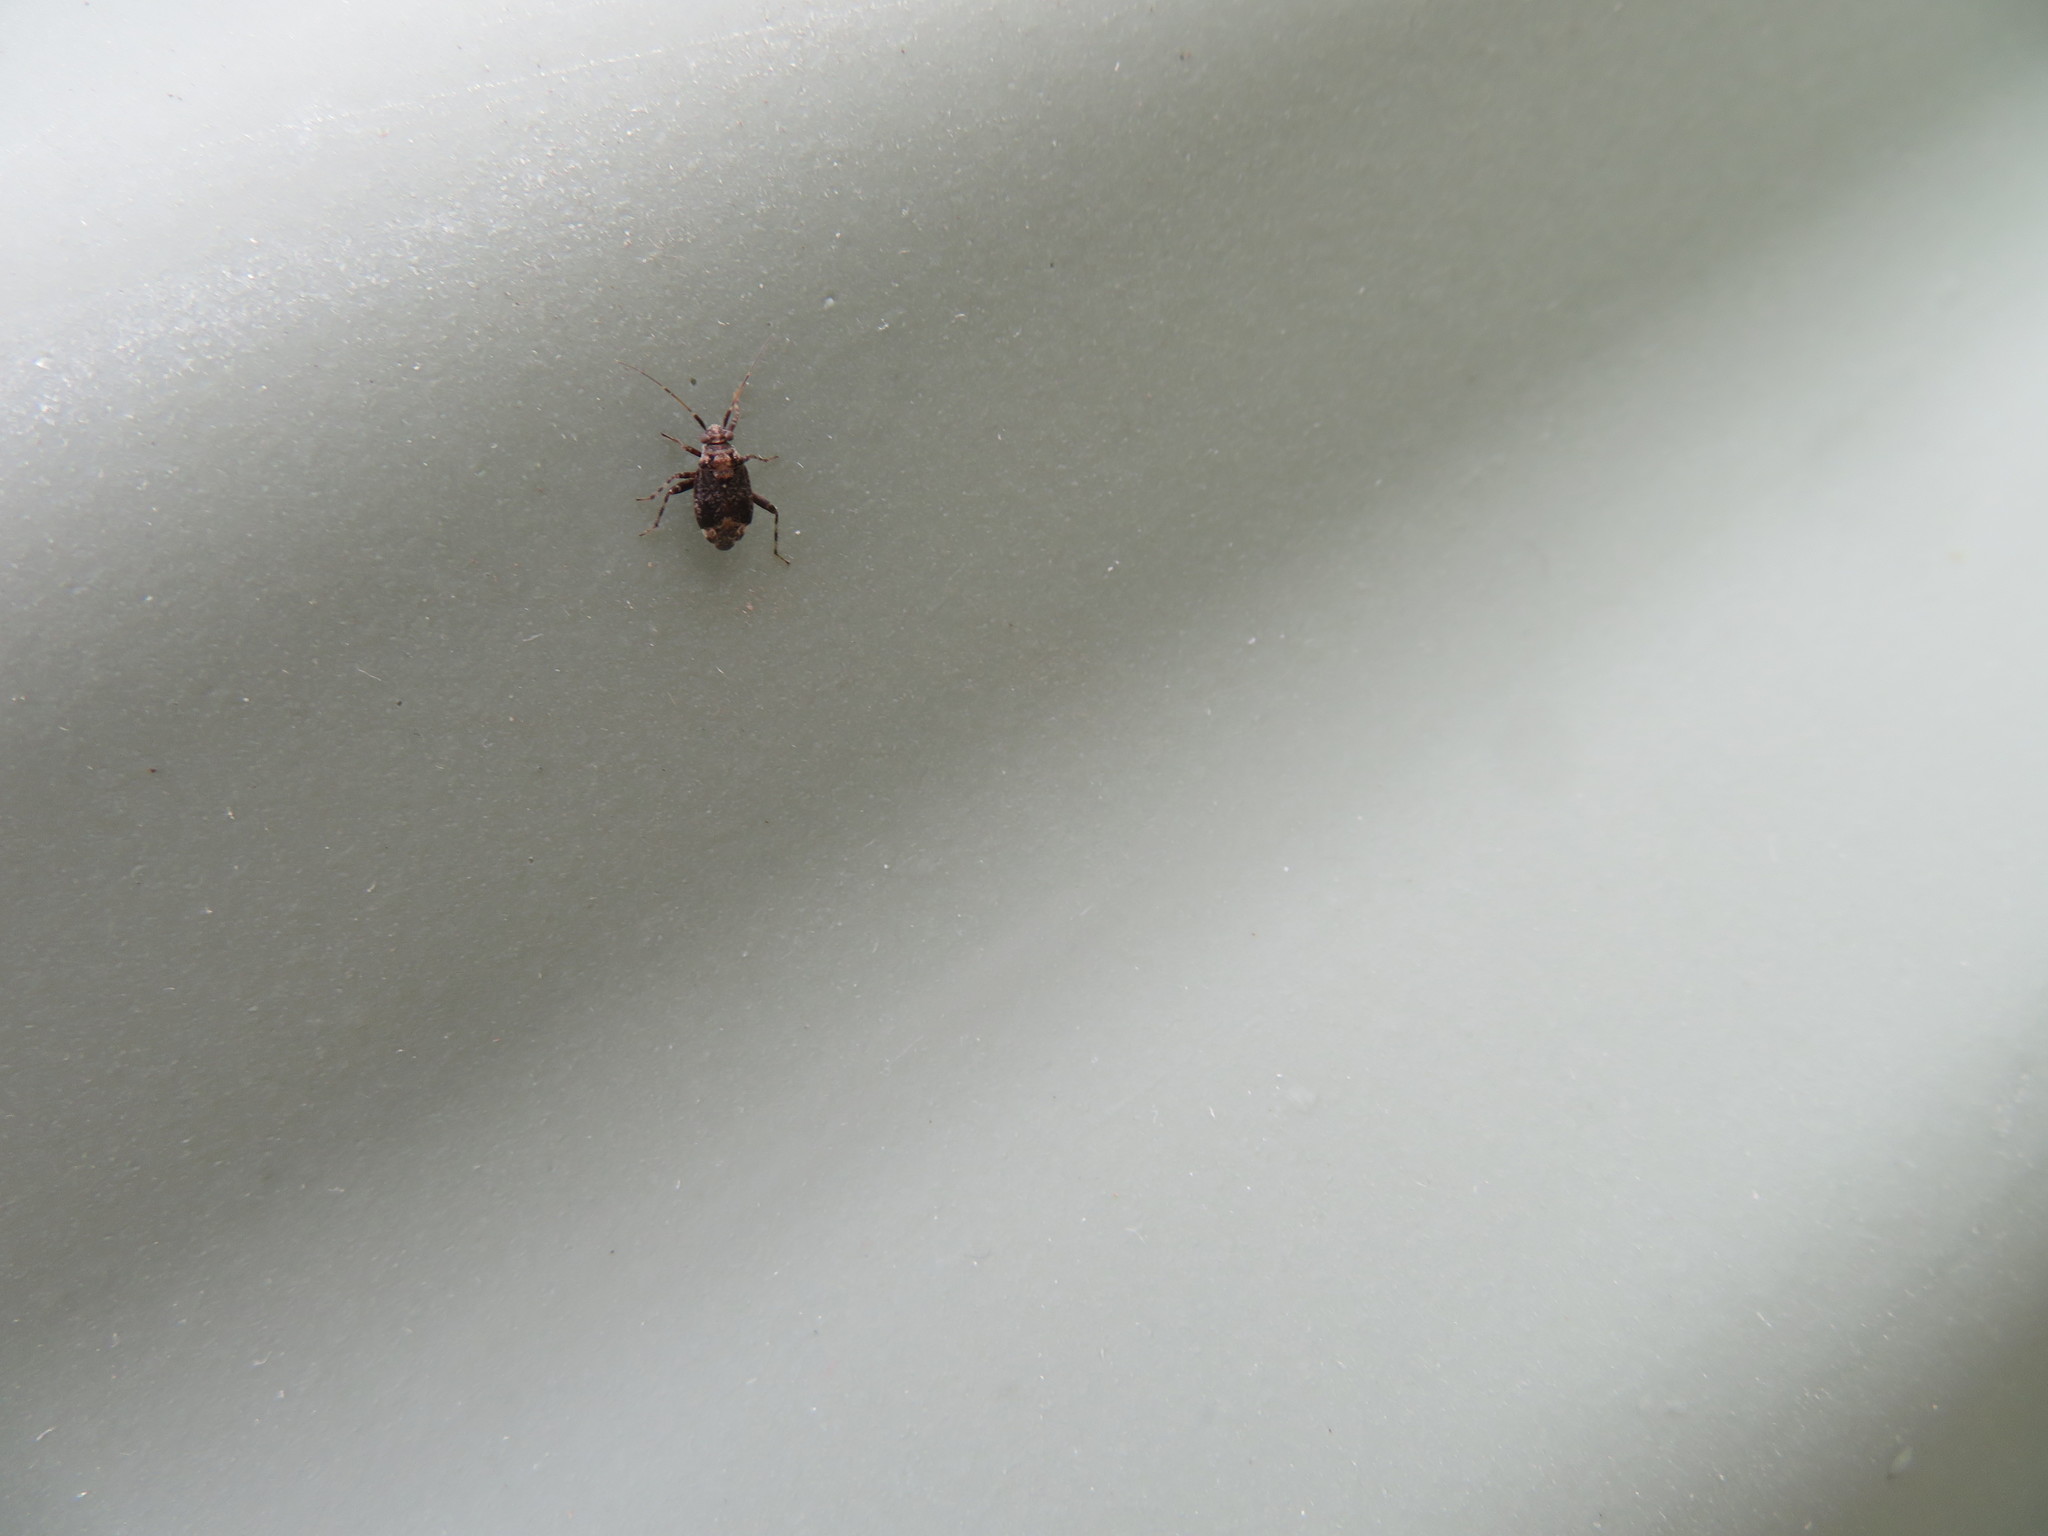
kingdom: Animalia
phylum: Arthropoda
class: Insecta
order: Hemiptera
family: Miridae
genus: Chinamiris
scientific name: Chinamiris
